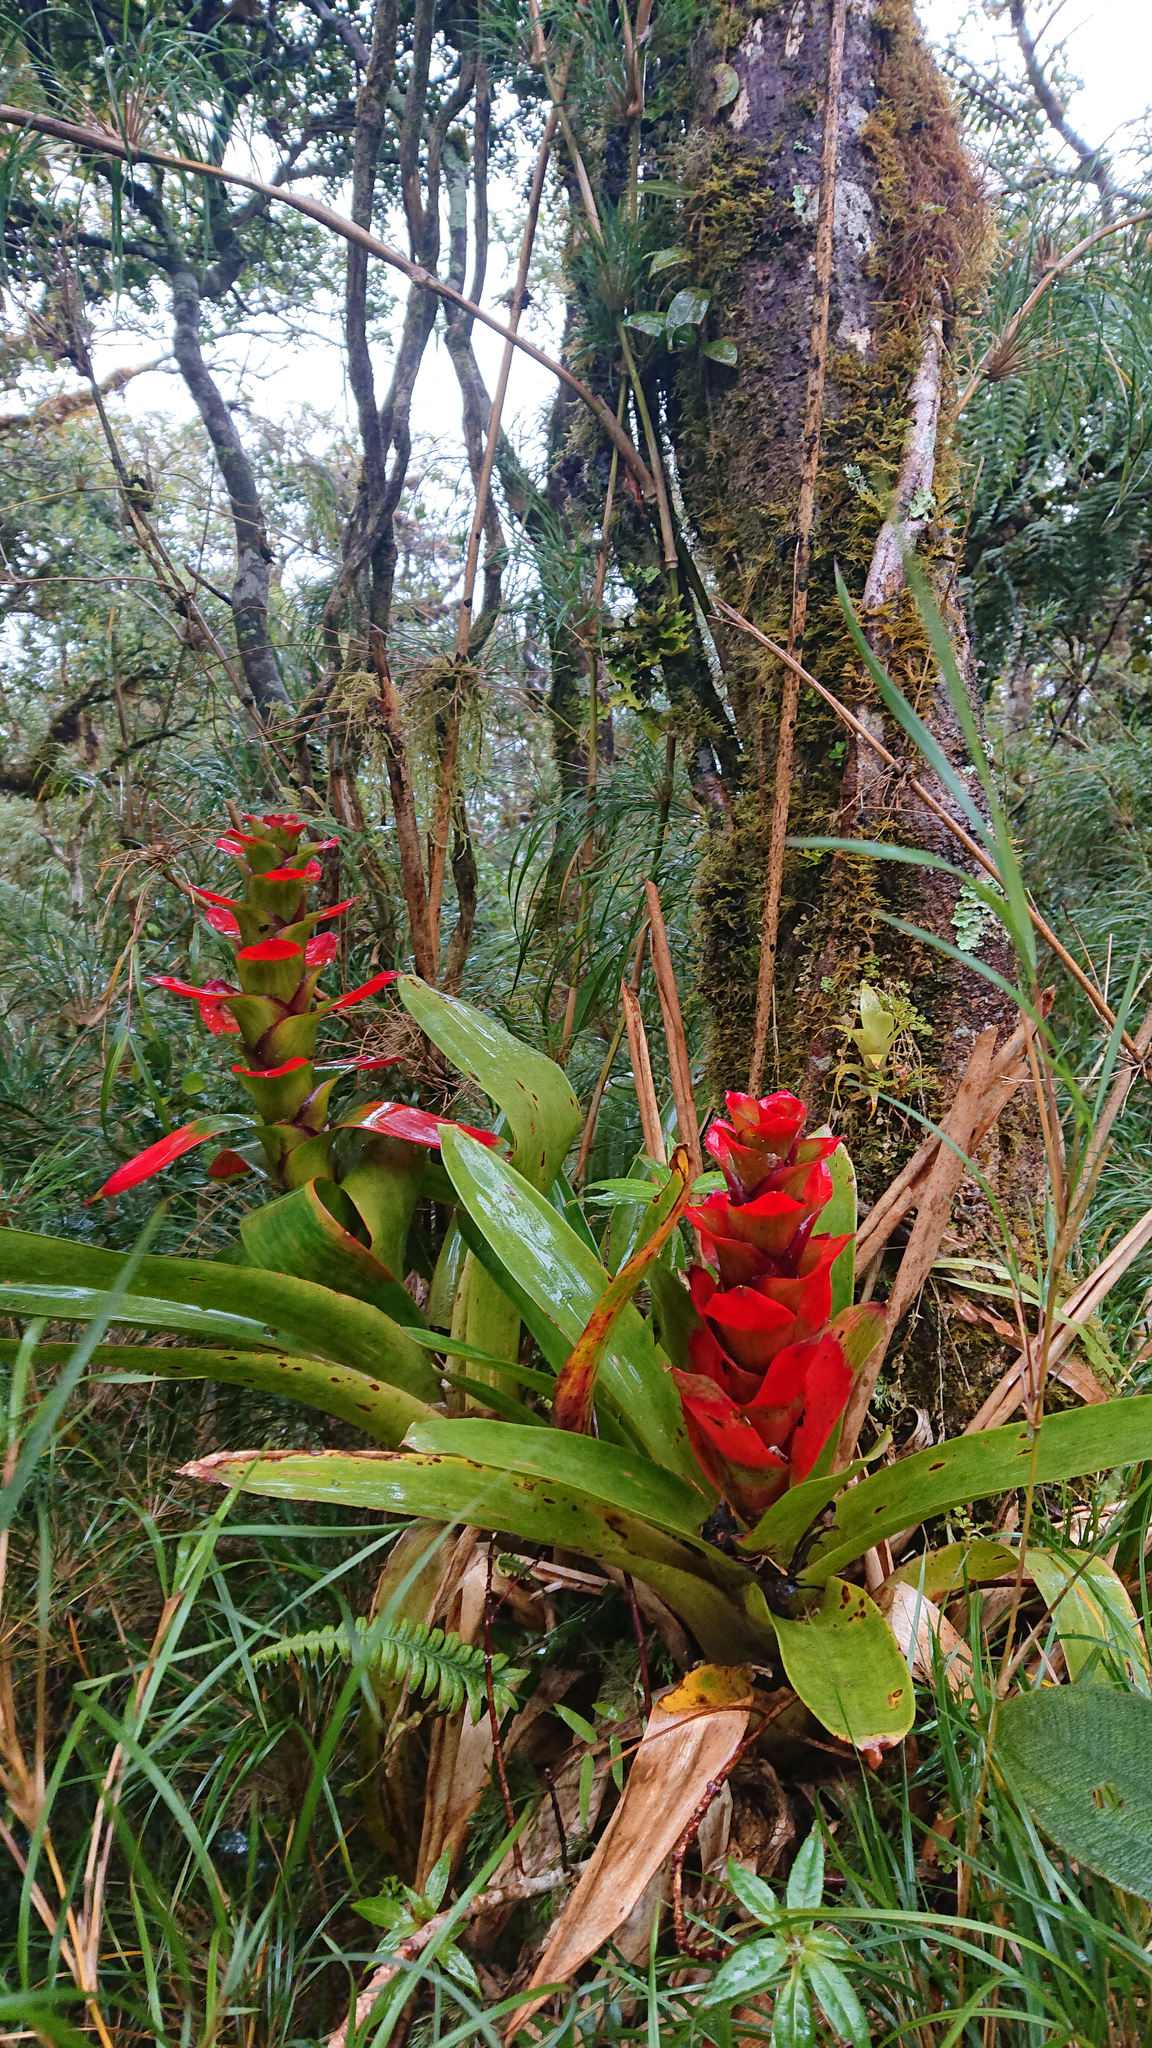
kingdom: Plantae
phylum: Tracheophyta
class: Liliopsida
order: Poales
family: Bromeliaceae
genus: Guzmania
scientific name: Guzmania gloriosa
